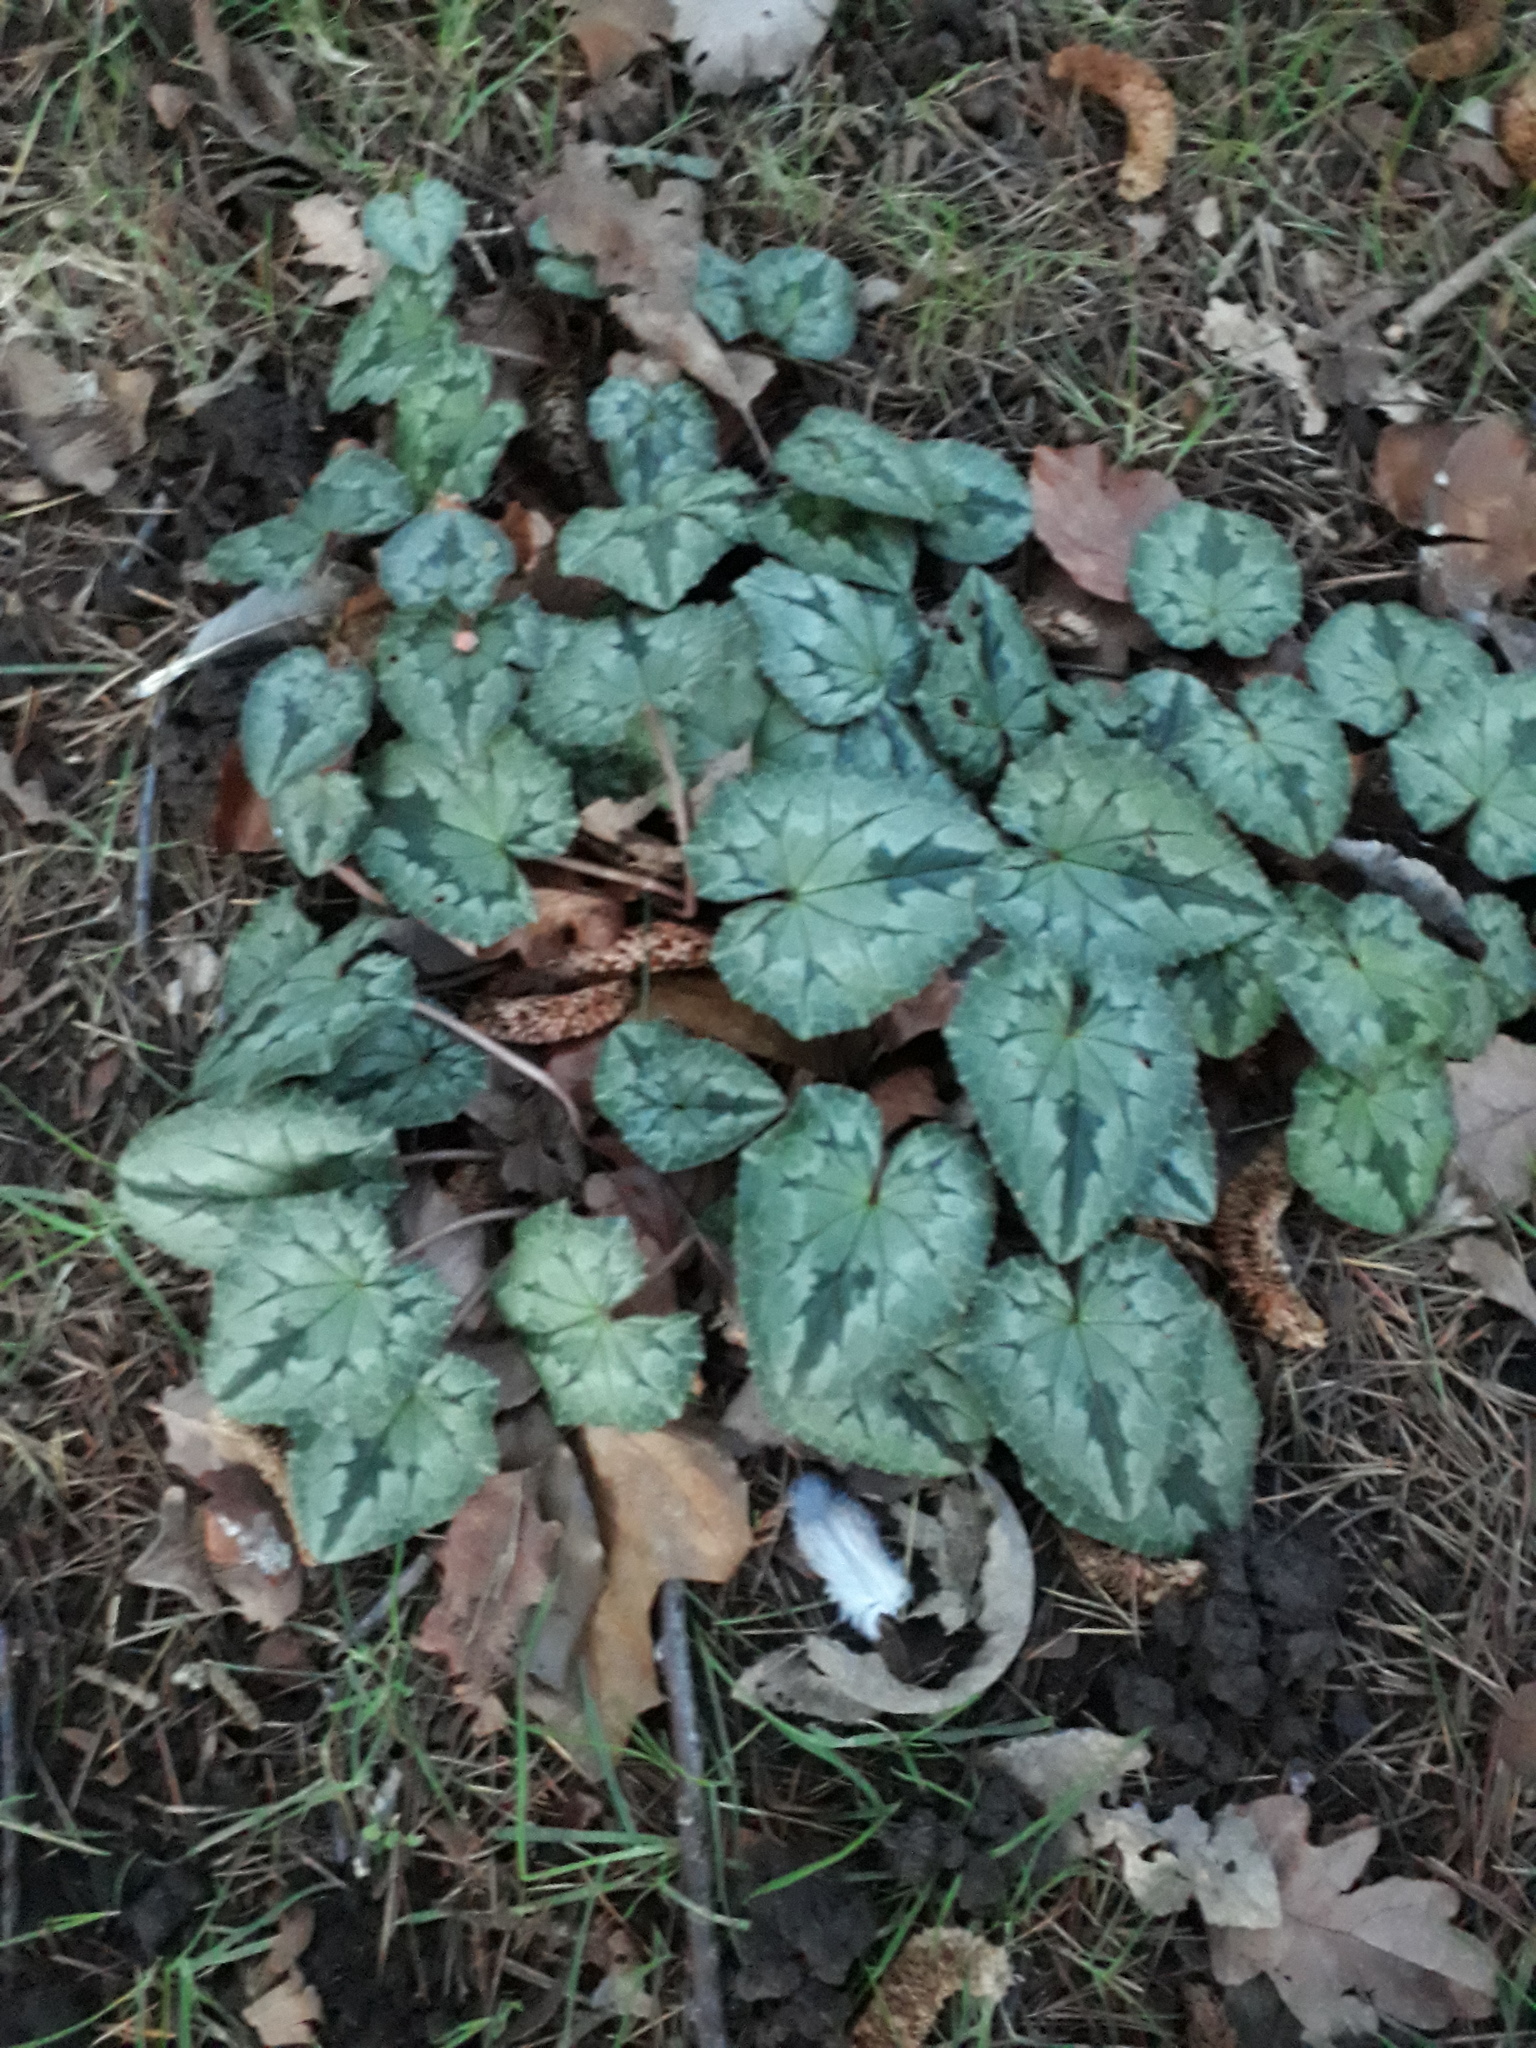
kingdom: Plantae
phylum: Tracheophyta
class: Magnoliopsida
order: Ericales
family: Primulaceae
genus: Cyclamen
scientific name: Cyclamen hederifolium
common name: Sowbread
